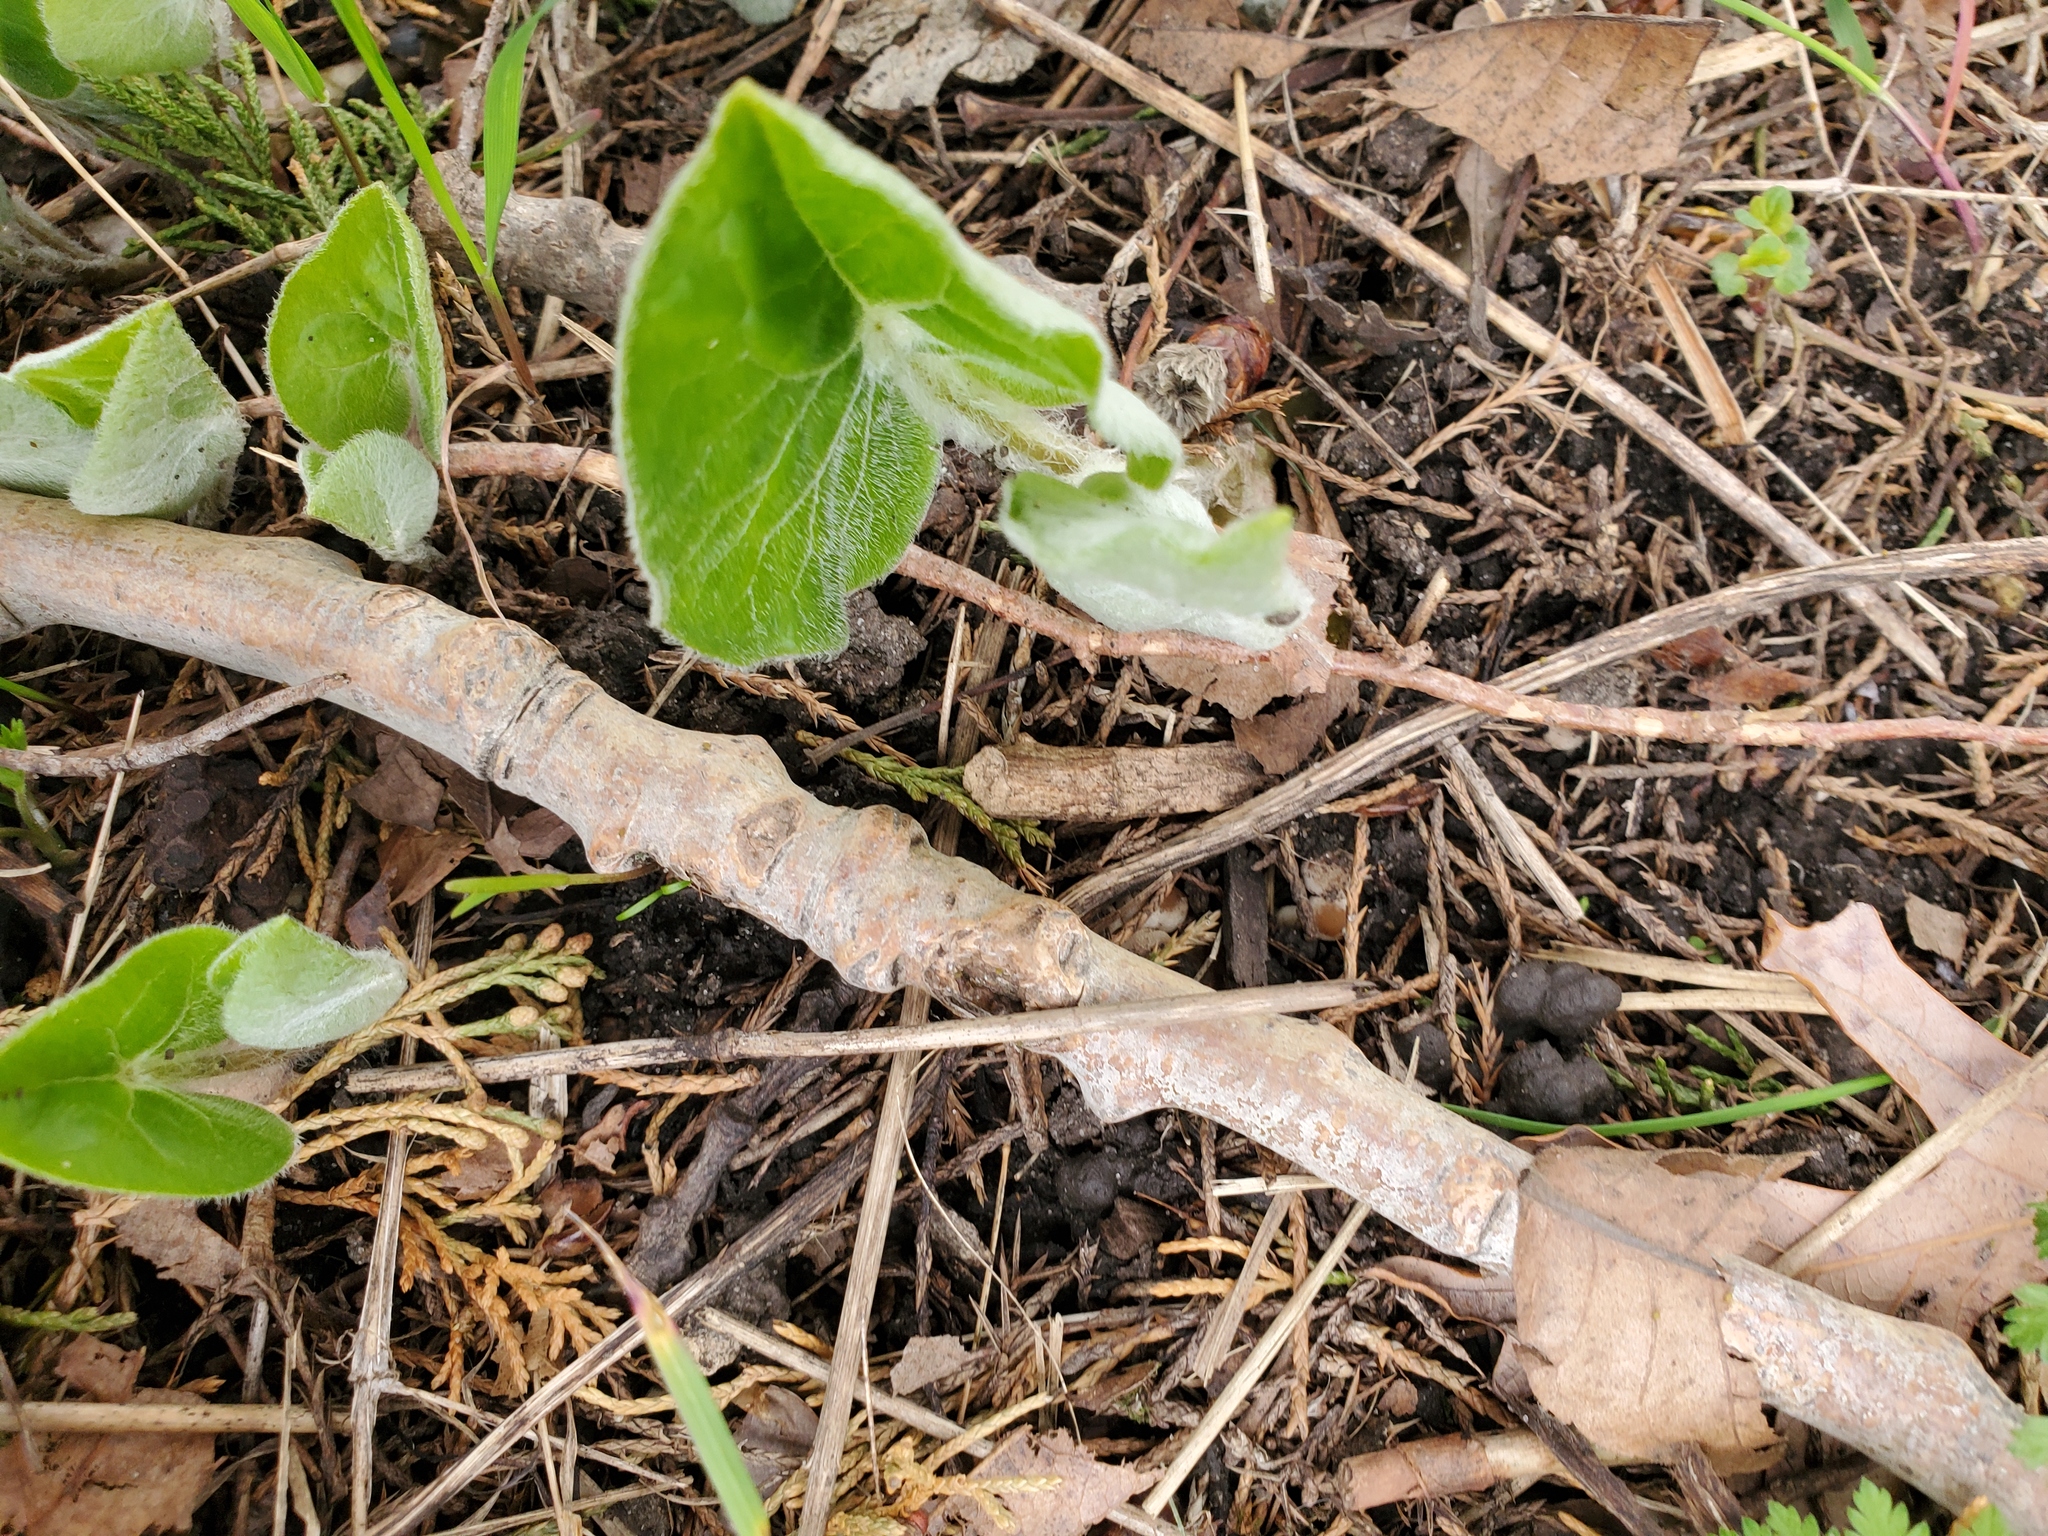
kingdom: Plantae
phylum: Tracheophyta
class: Magnoliopsida
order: Piperales
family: Aristolochiaceae
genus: Asarum
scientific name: Asarum canadense
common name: Wild ginger
